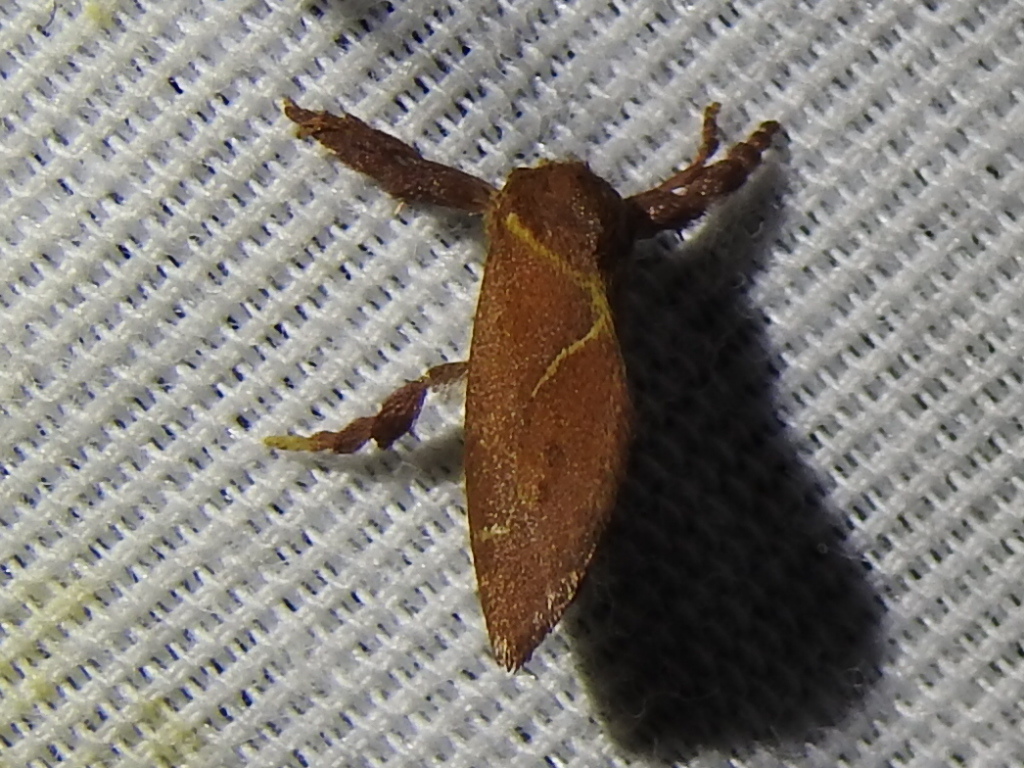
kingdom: Animalia
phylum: Arthropoda
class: Insecta
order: Lepidoptera
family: Limacodidae
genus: Adoneta
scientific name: Adoneta pygmaea
